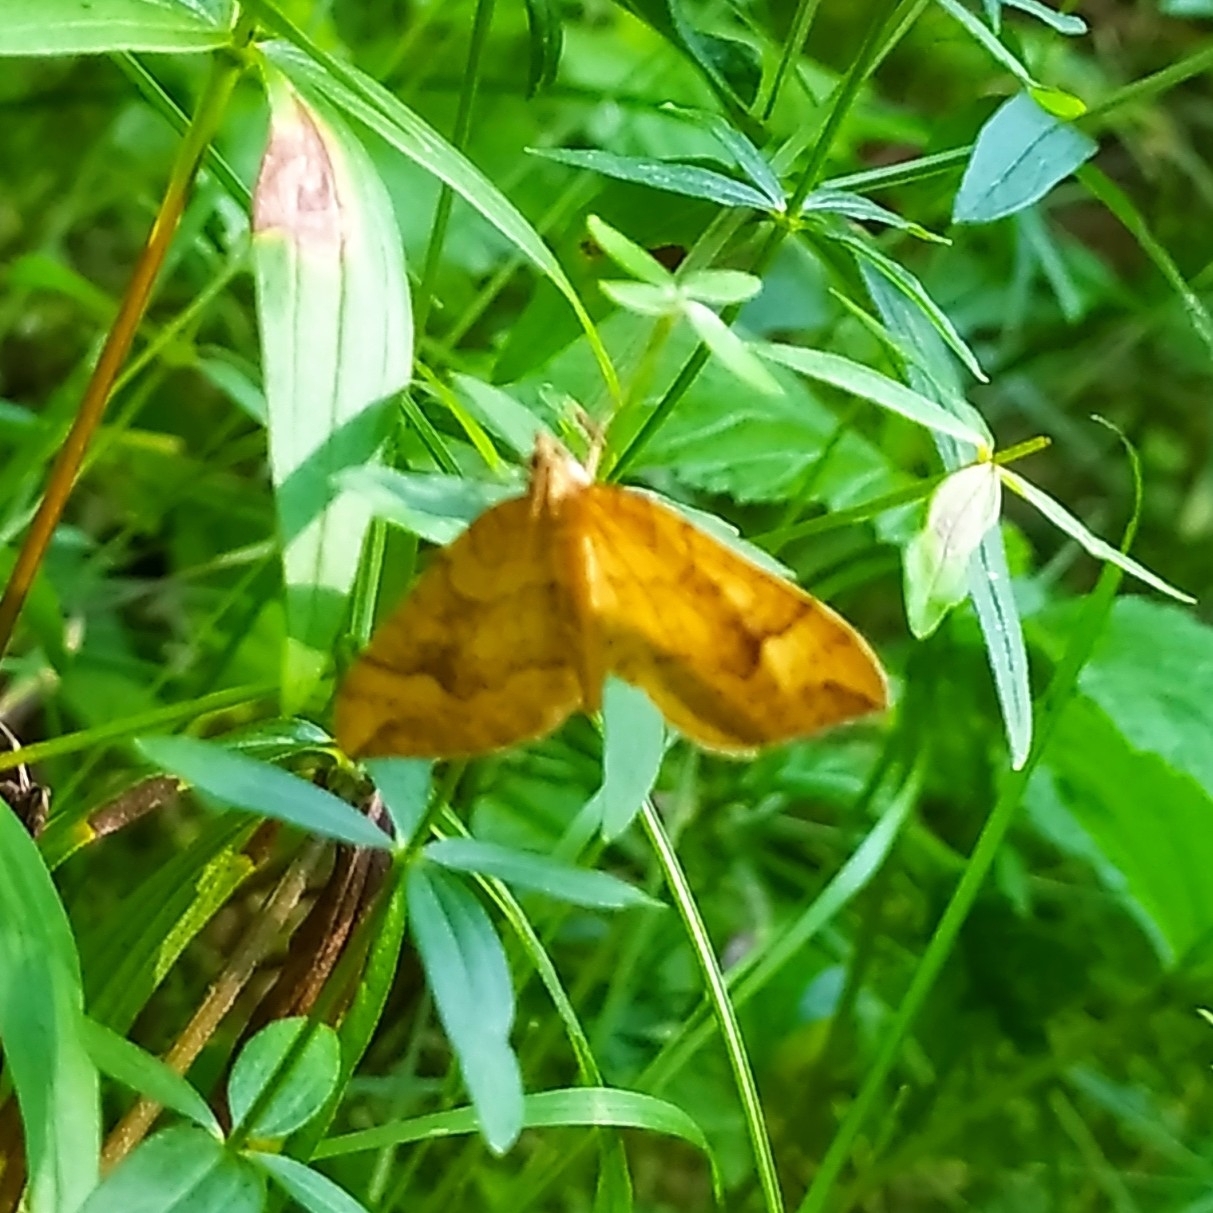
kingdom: Animalia
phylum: Arthropoda
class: Insecta
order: Lepidoptera
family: Geometridae
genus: Eulithis
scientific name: Eulithis populata
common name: Northern spinach
